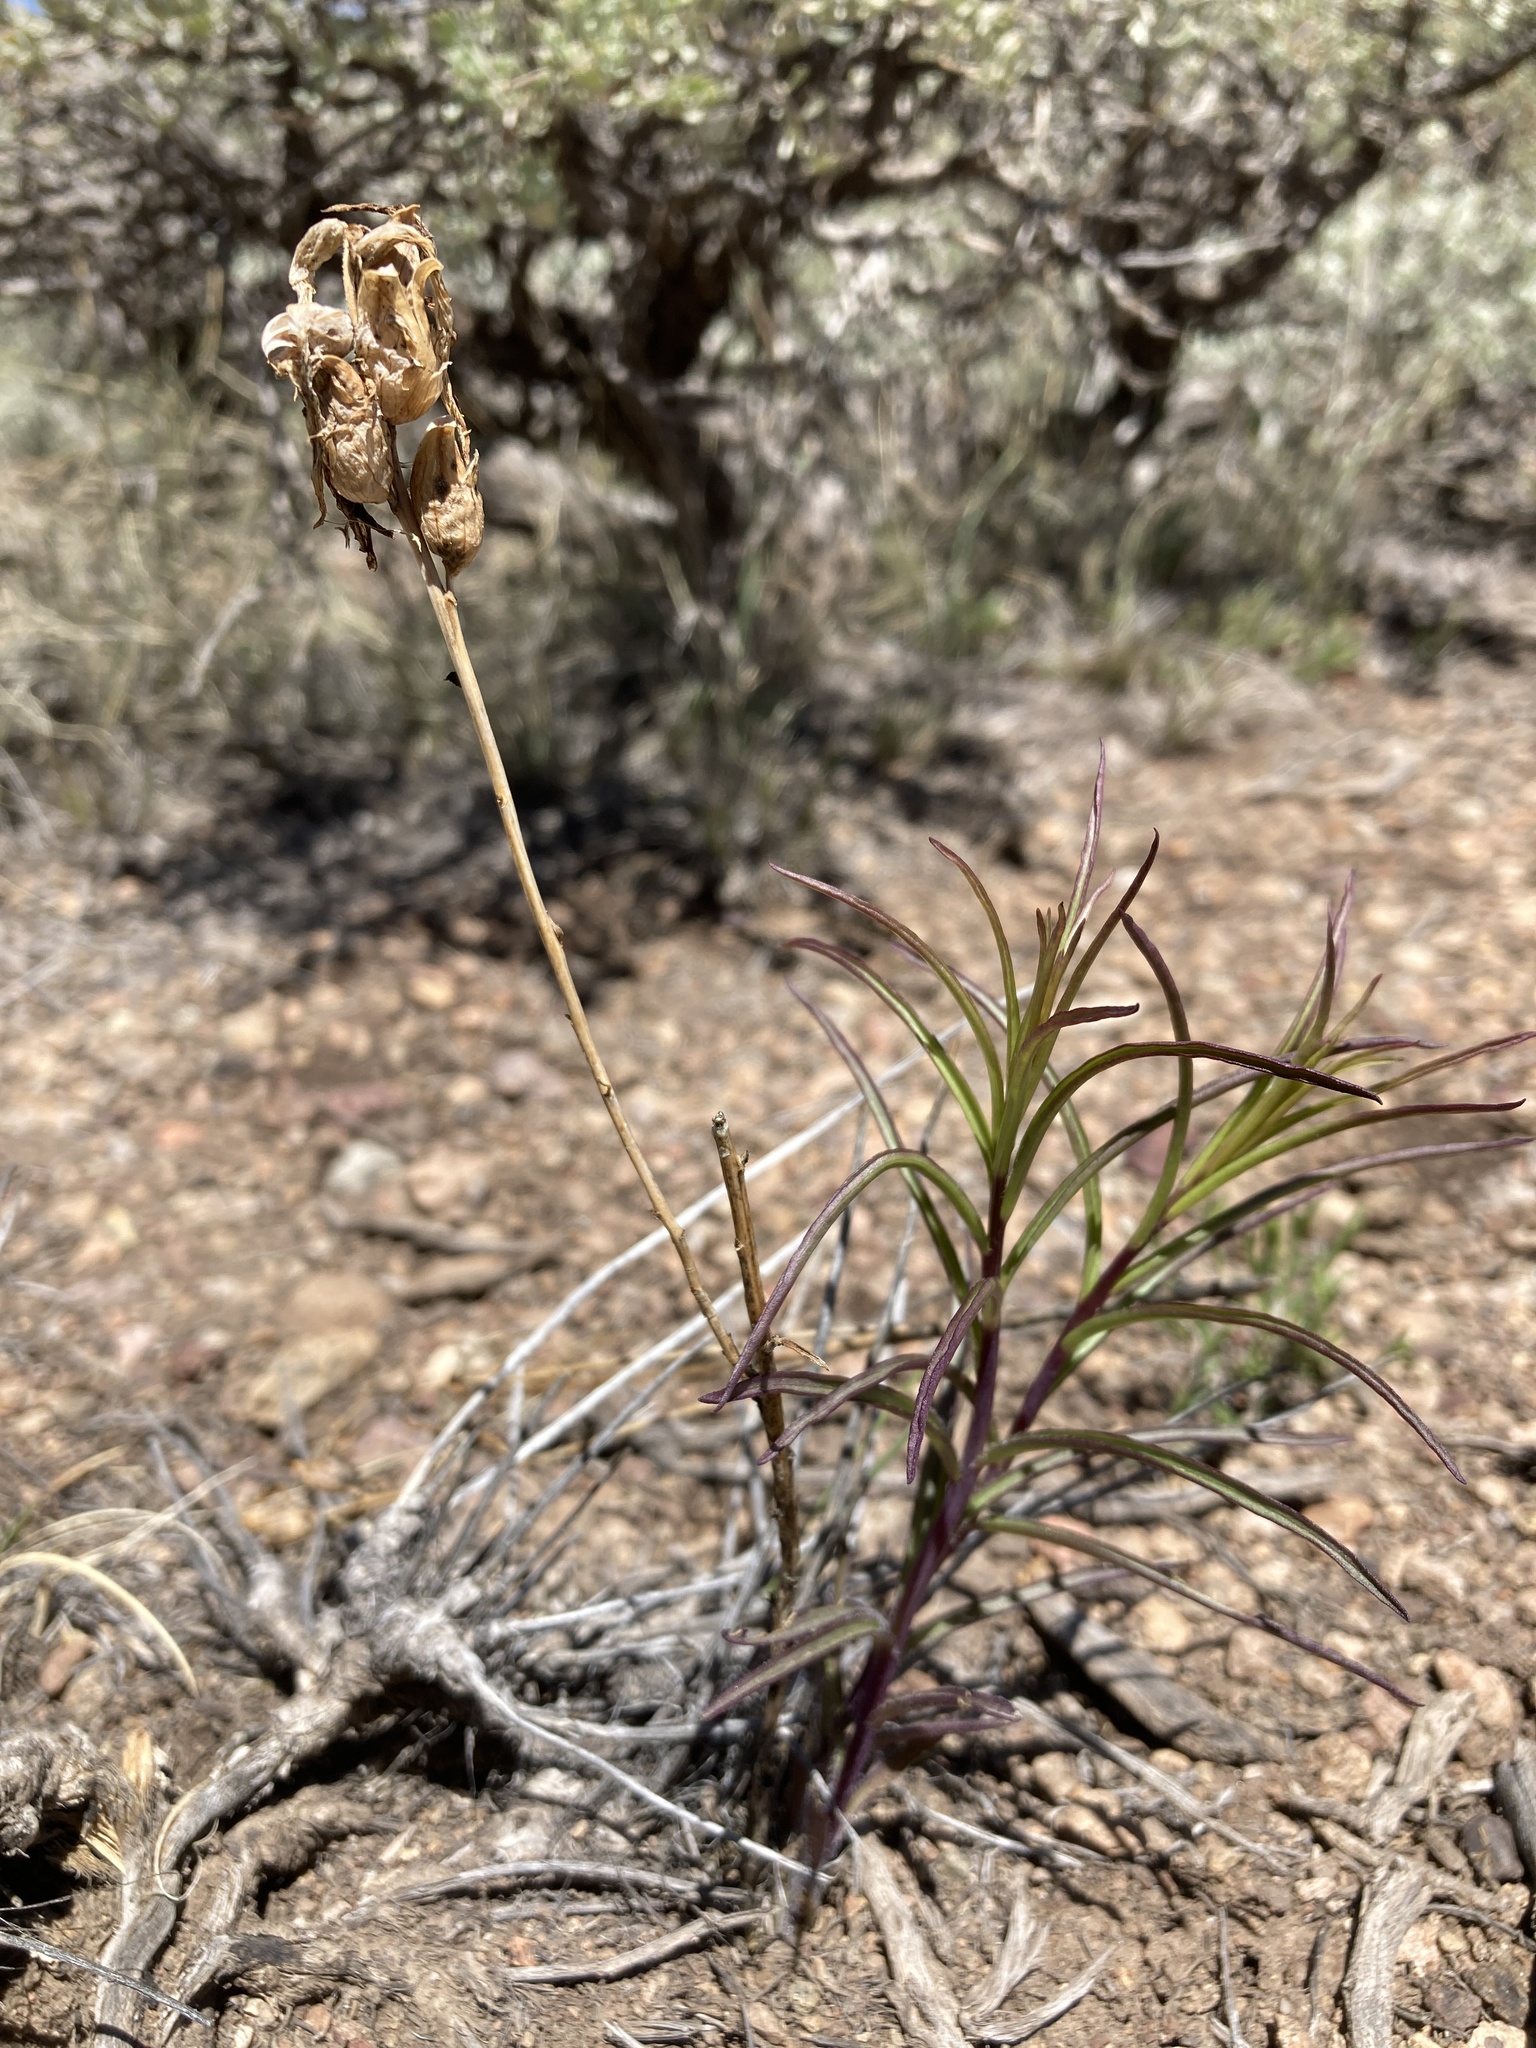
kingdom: Plantae
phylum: Tracheophyta
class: Magnoliopsida
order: Lamiales
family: Orobanchaceae
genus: Castilleja
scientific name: Castilleja linariifolia
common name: Wyoming paintbrush
